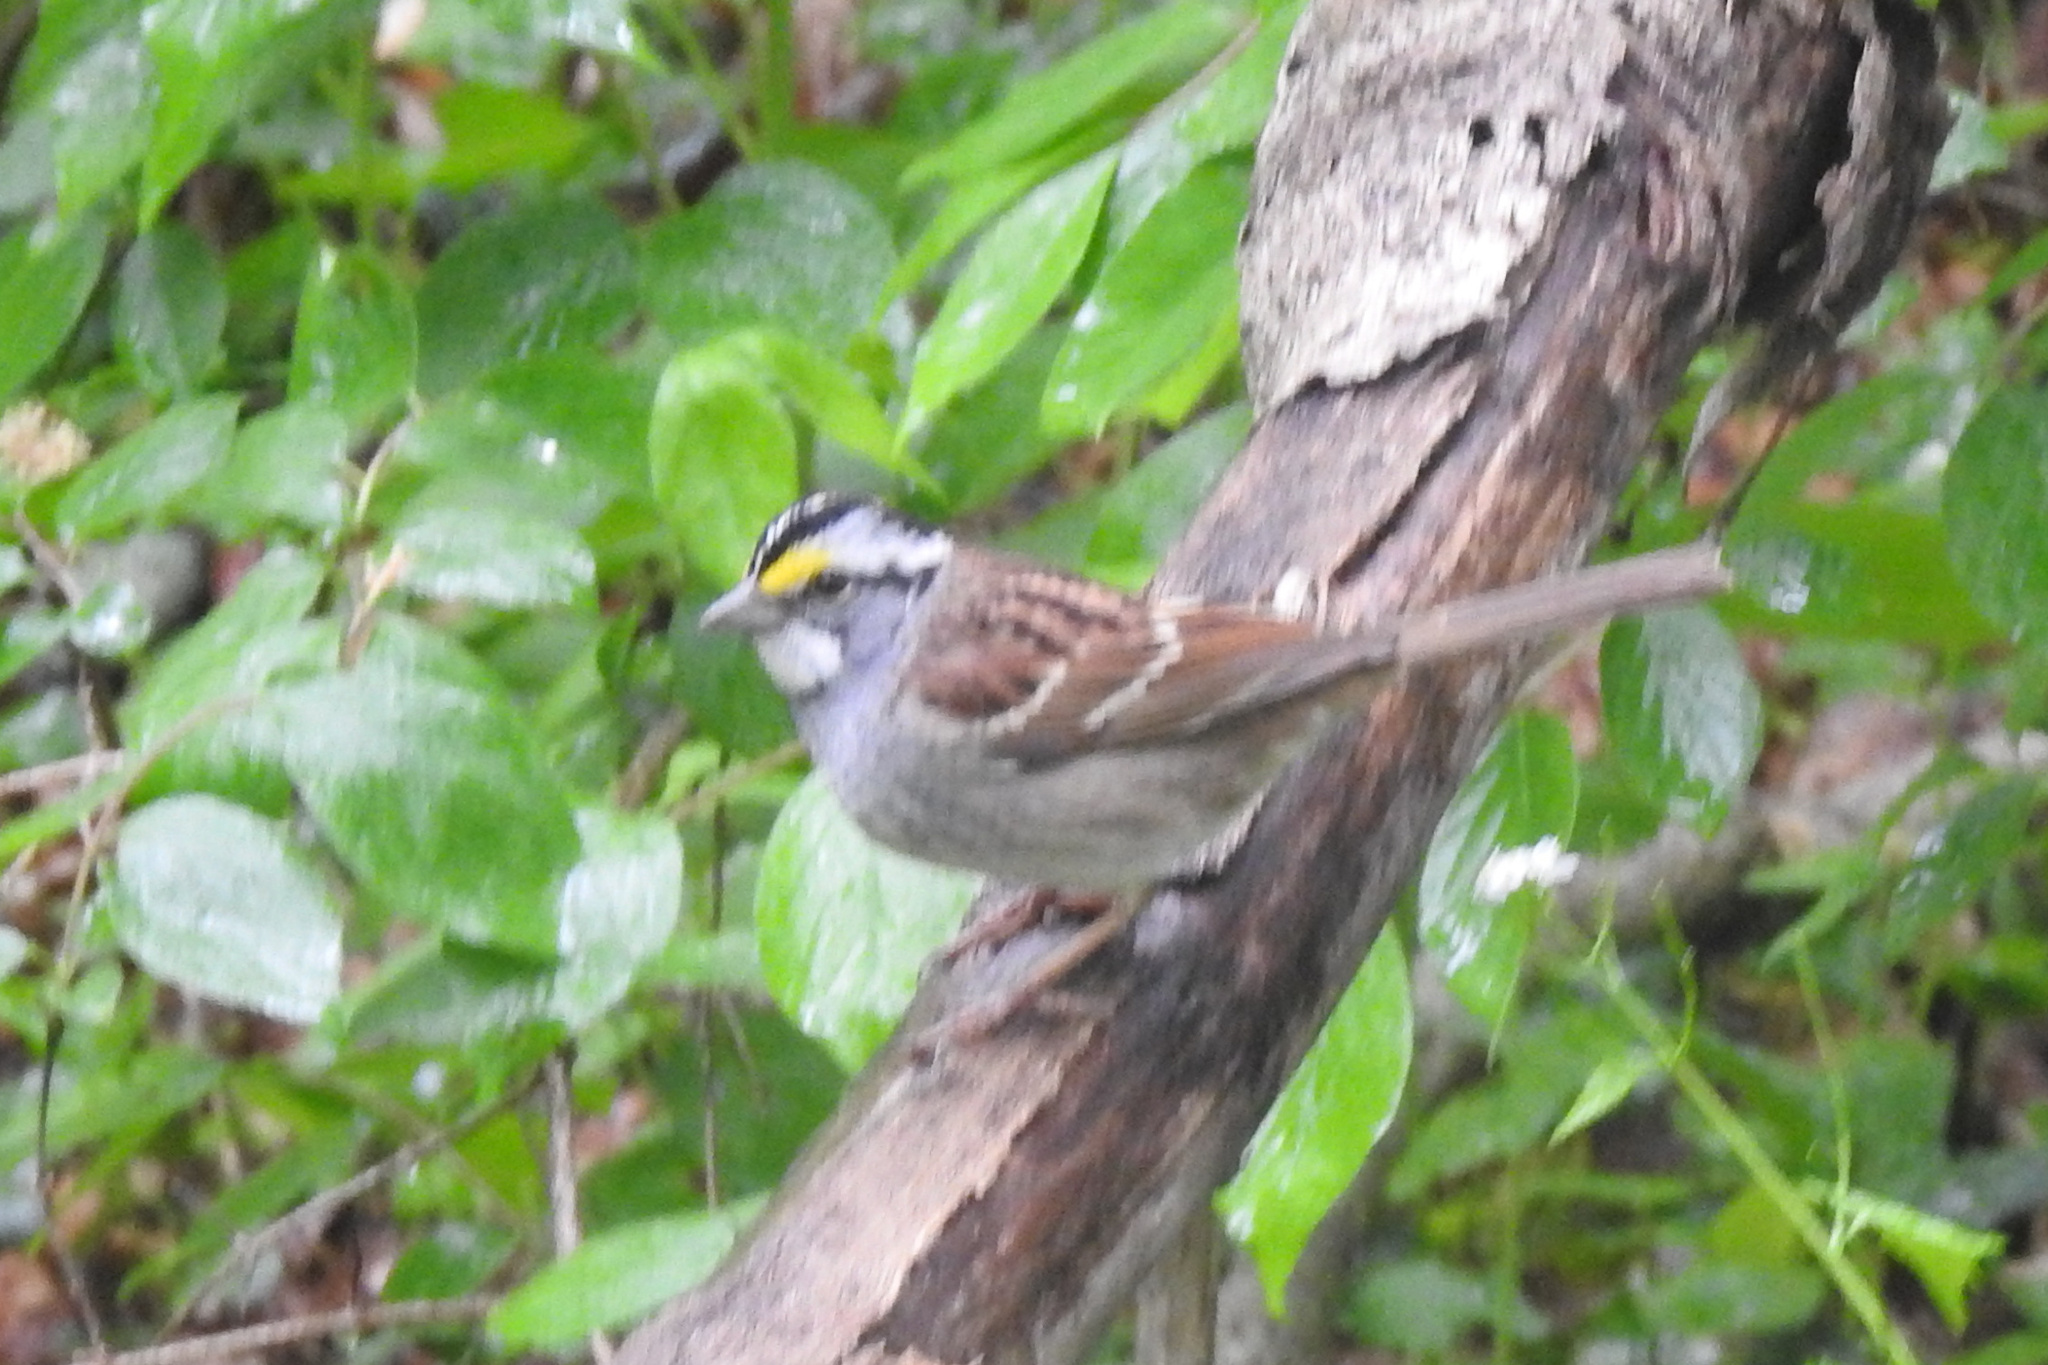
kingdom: Animalia
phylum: Chordata
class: Aves
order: Passeriformes
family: Passerellidae
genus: Zonotrichia
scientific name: Zonotrichia albicollis
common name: White-throated sparrow
